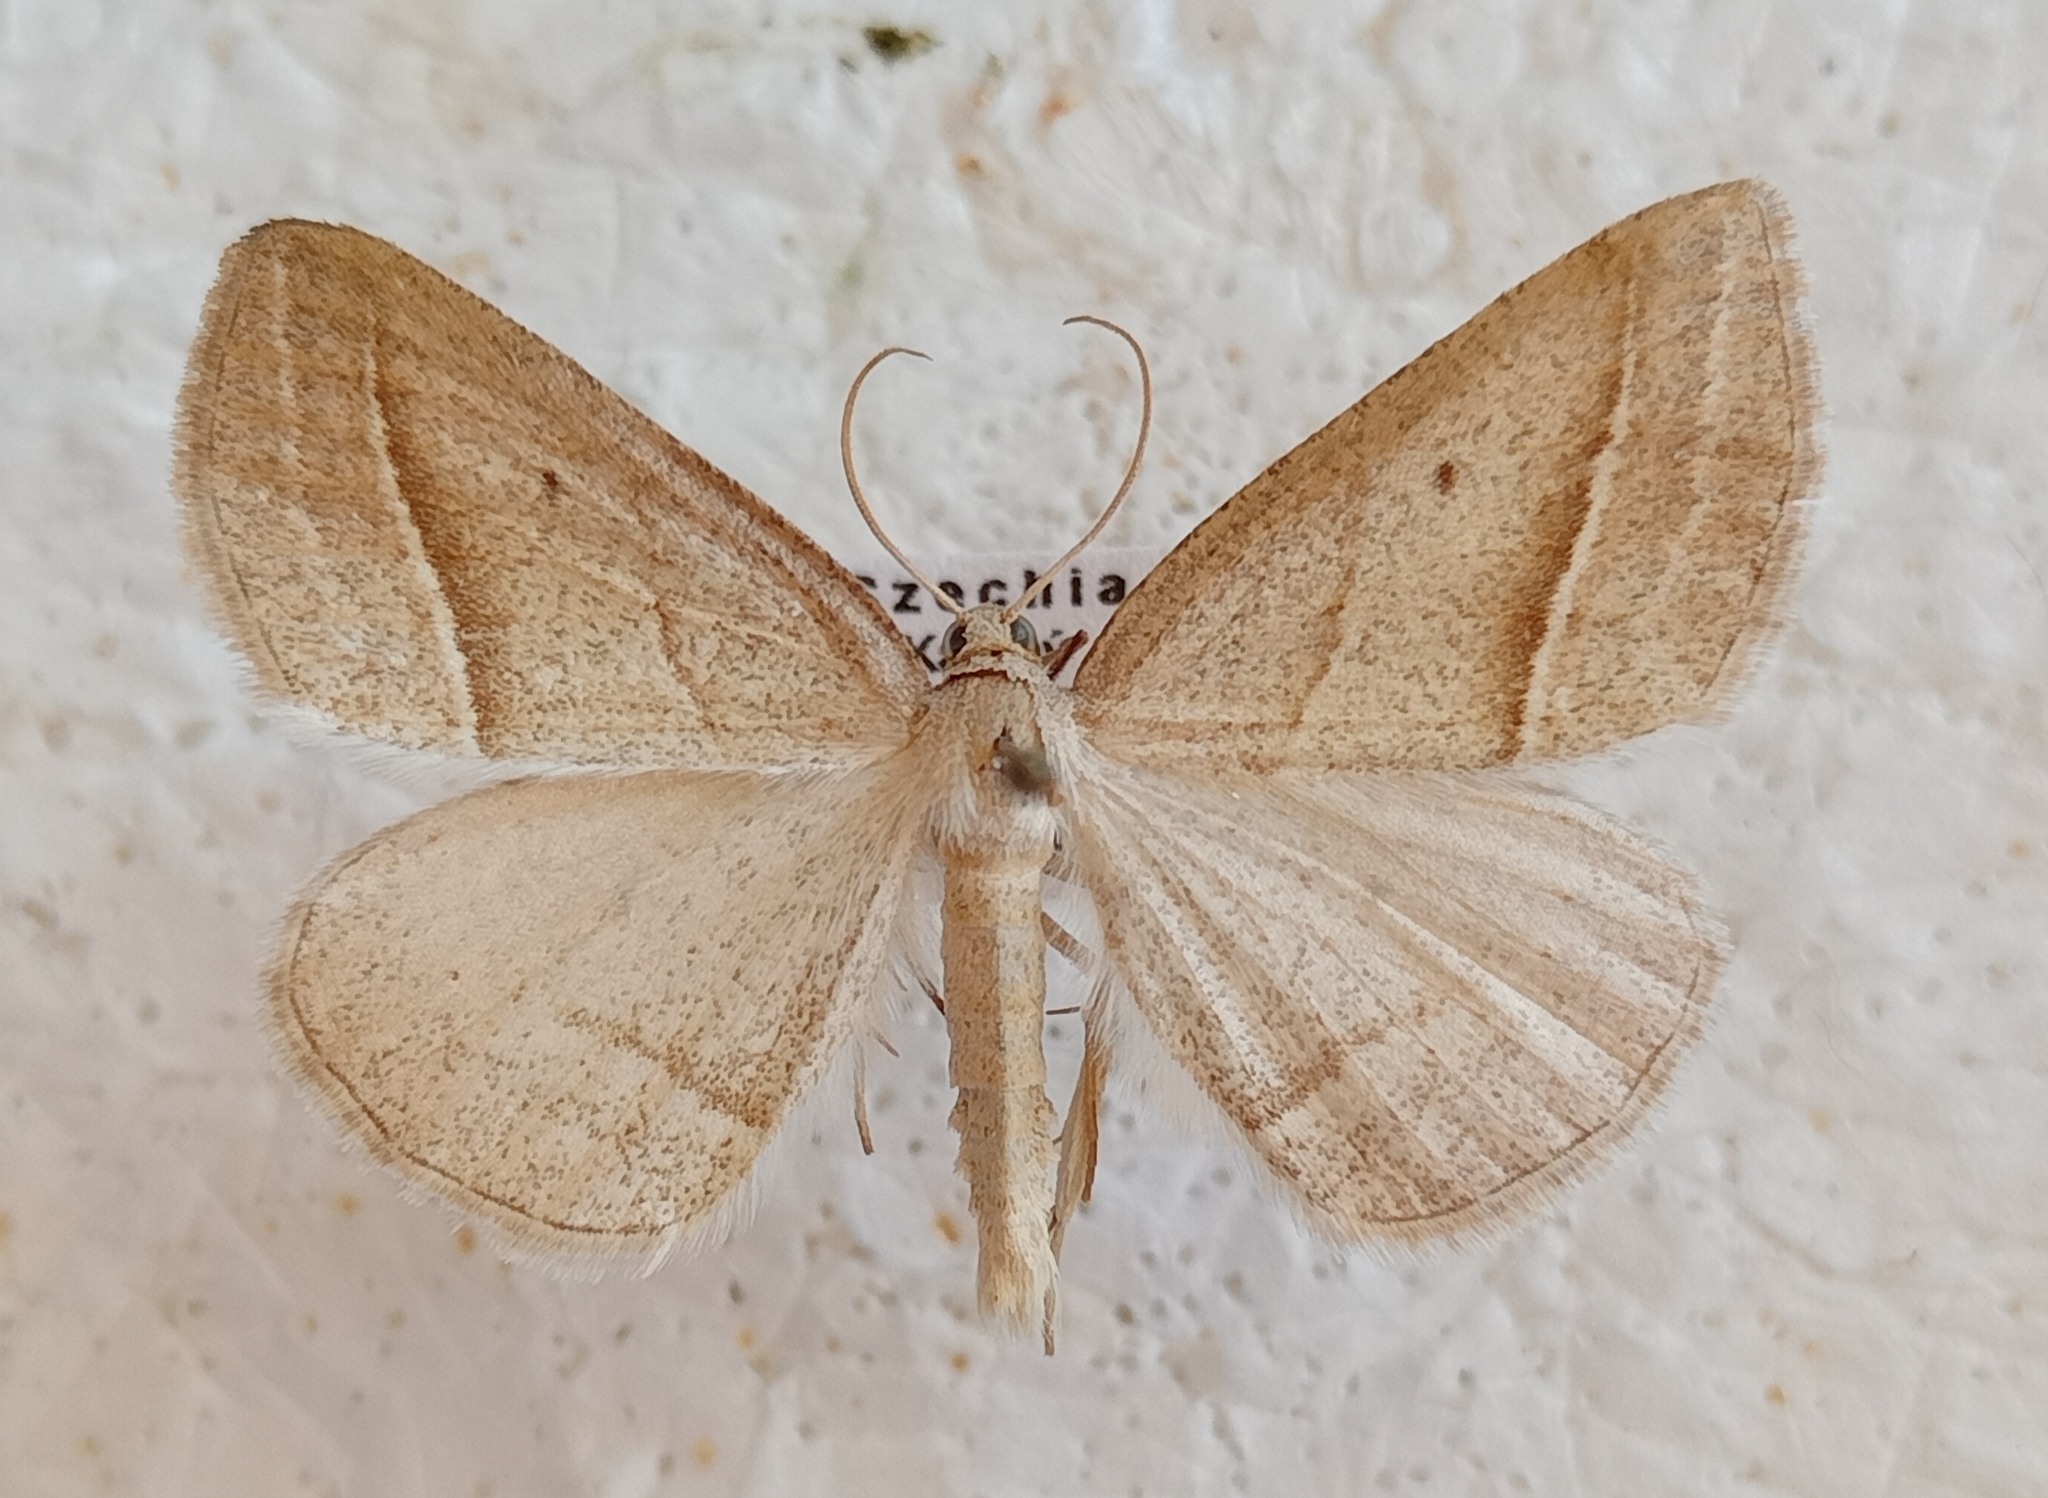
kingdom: Animalia
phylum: Arthropoda
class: Insecta
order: Lepidoptera
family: Pterophoridae
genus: Pterophorus
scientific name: Pterophorus Petrophora chlorosata
